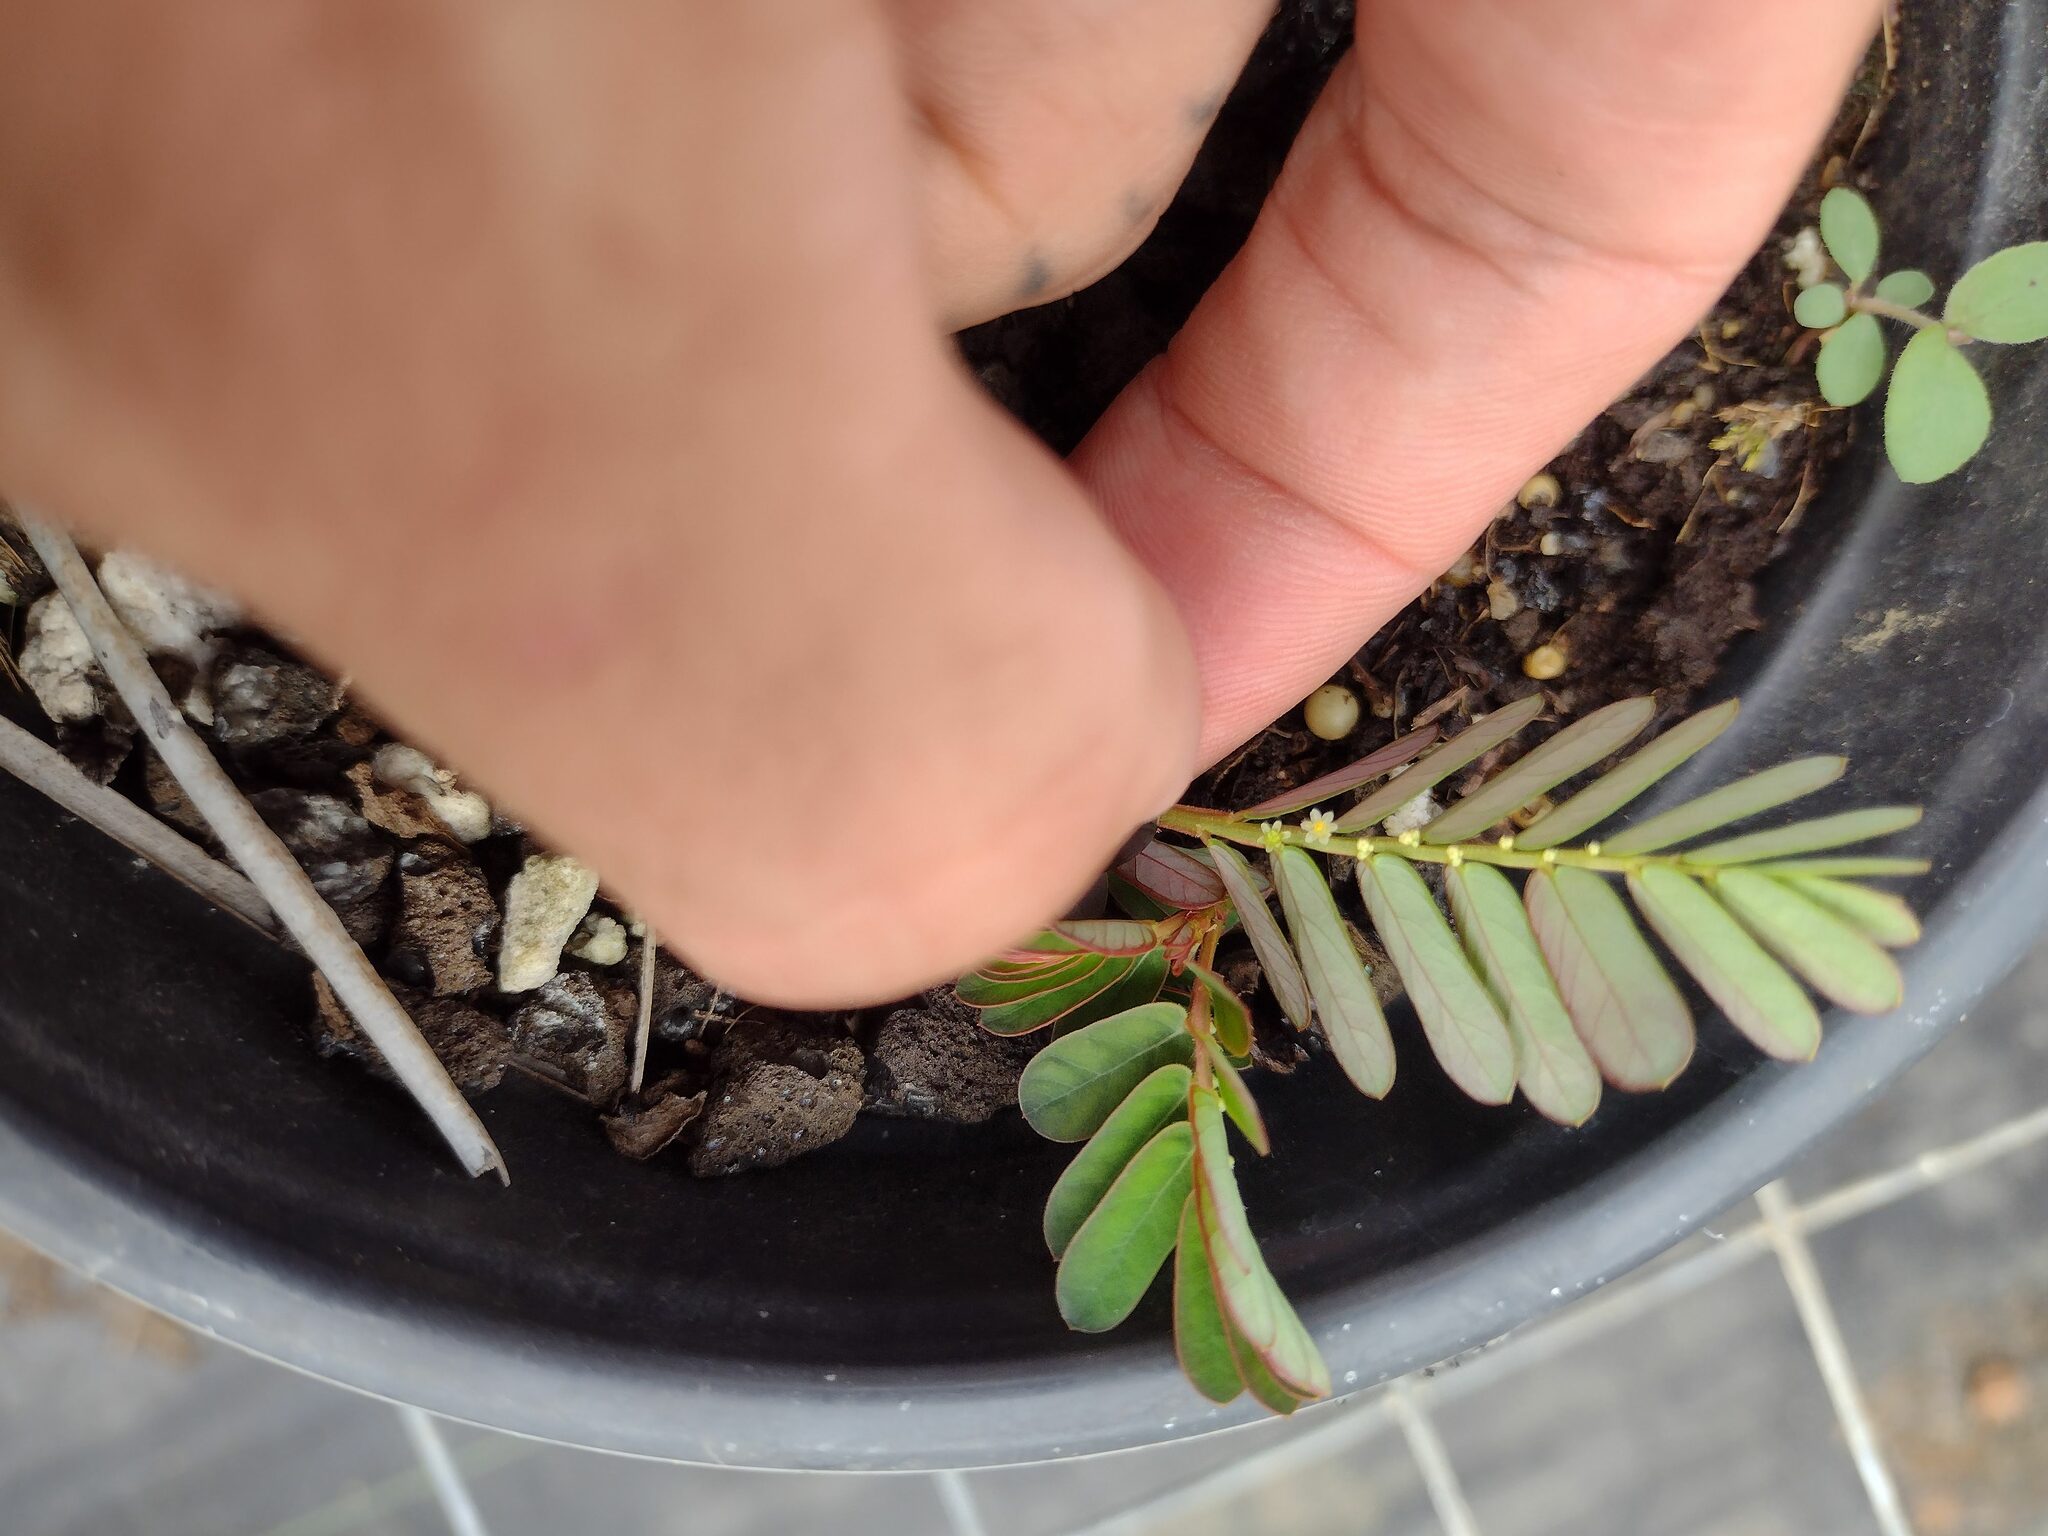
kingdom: Plantae
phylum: Tracheophyta
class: Magnoliopsida
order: Malpighiales
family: Phyllanthaceae
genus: Phyllanthus
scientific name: Phyllanthus urinaria
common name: Chamber bitter
